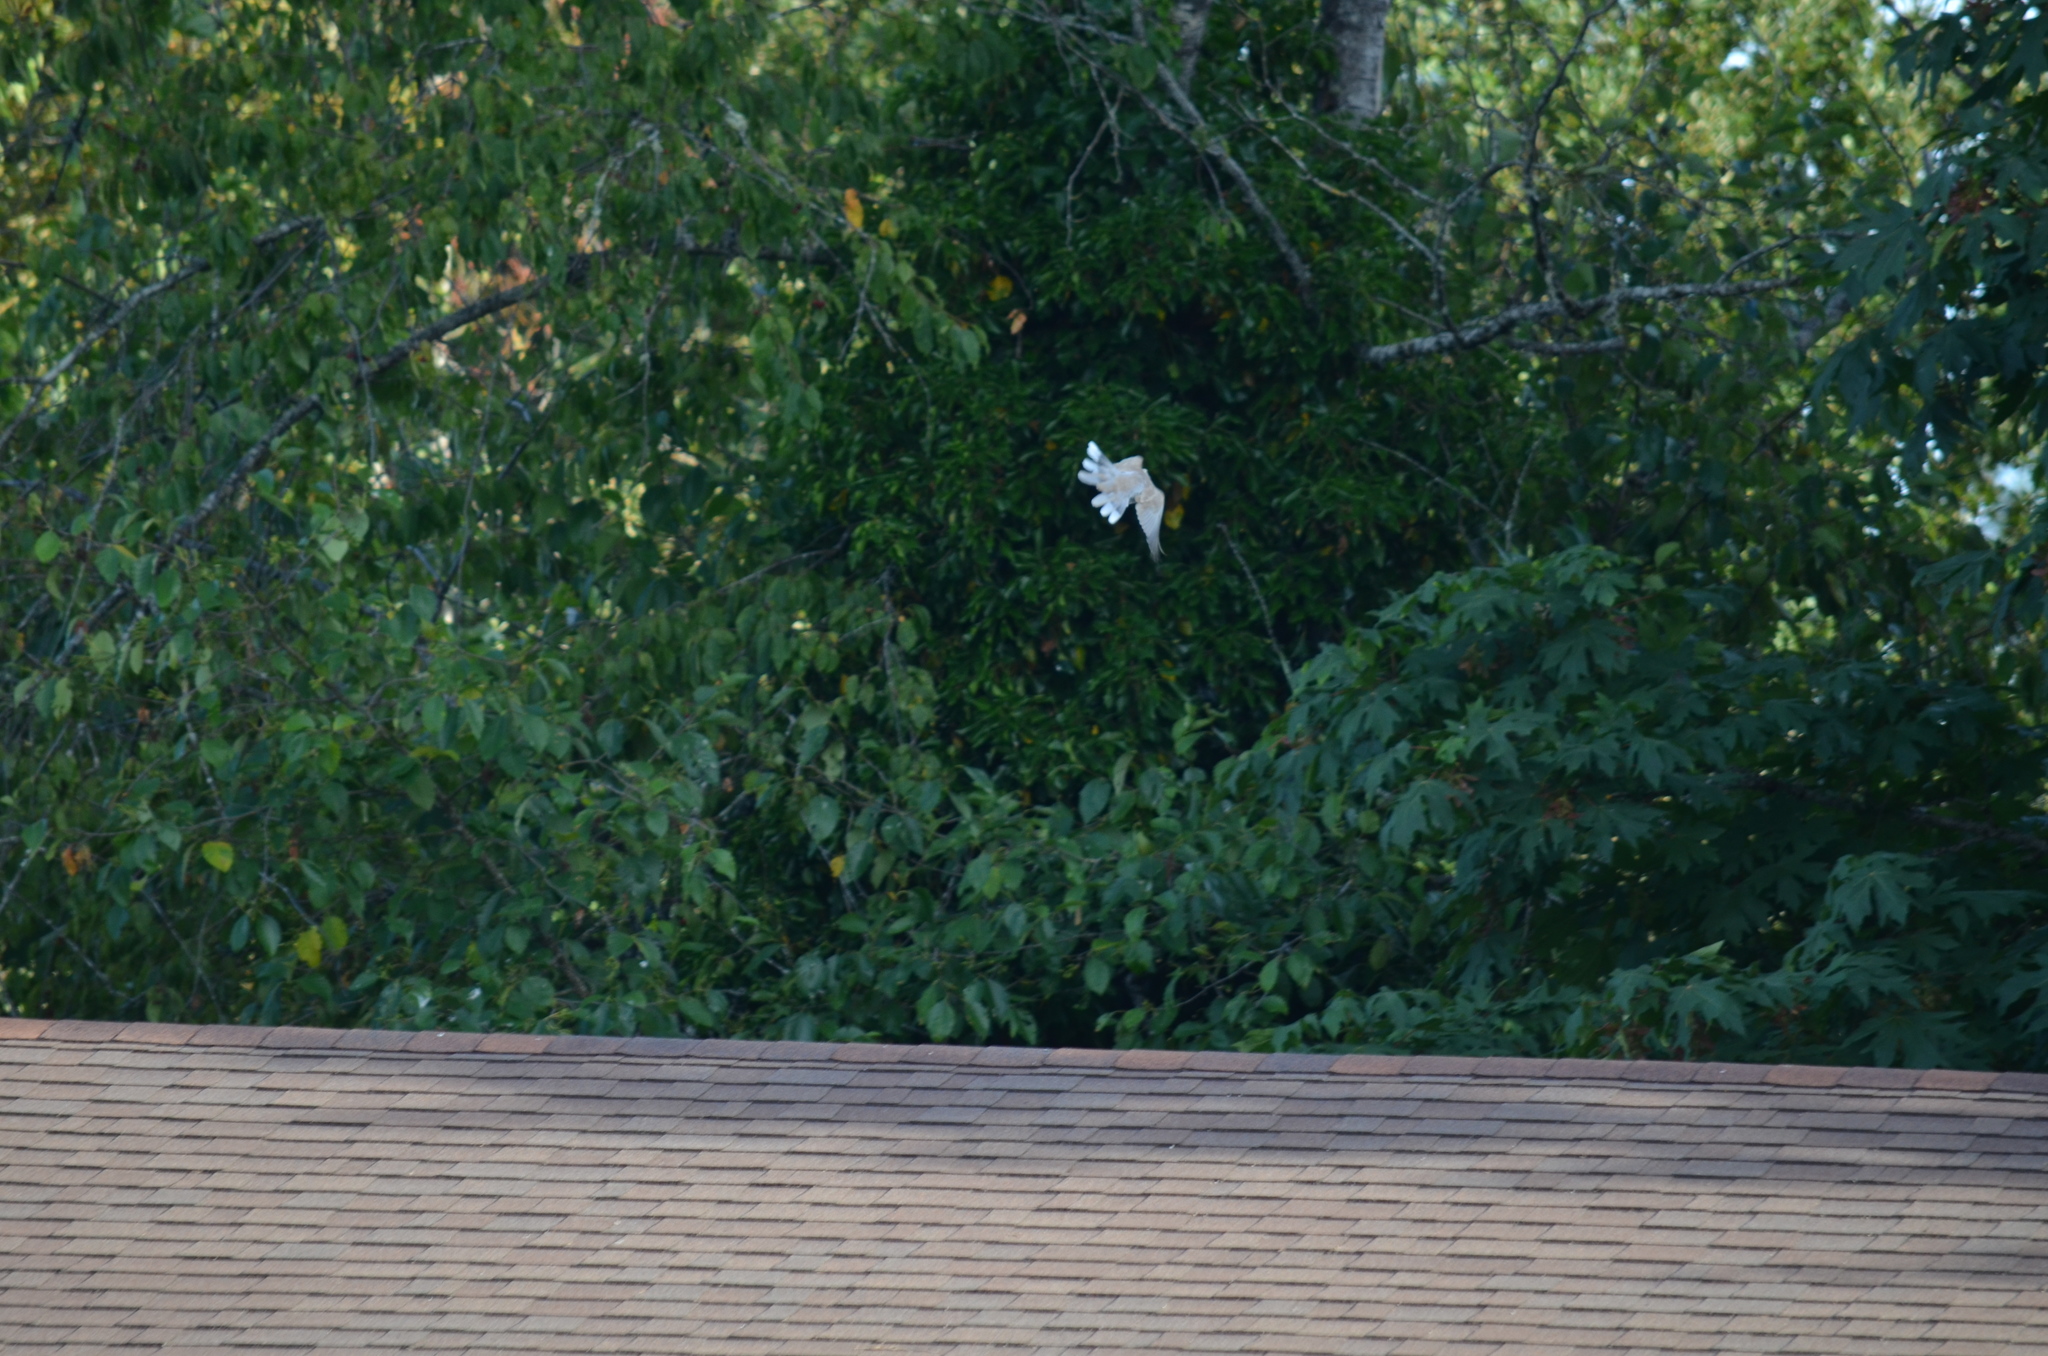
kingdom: Animalia
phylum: Chordata
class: Aves
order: Columbiformes
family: Columbidae
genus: Streptopelia
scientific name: Streptopelia decaocto
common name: Eurasian collared dove
